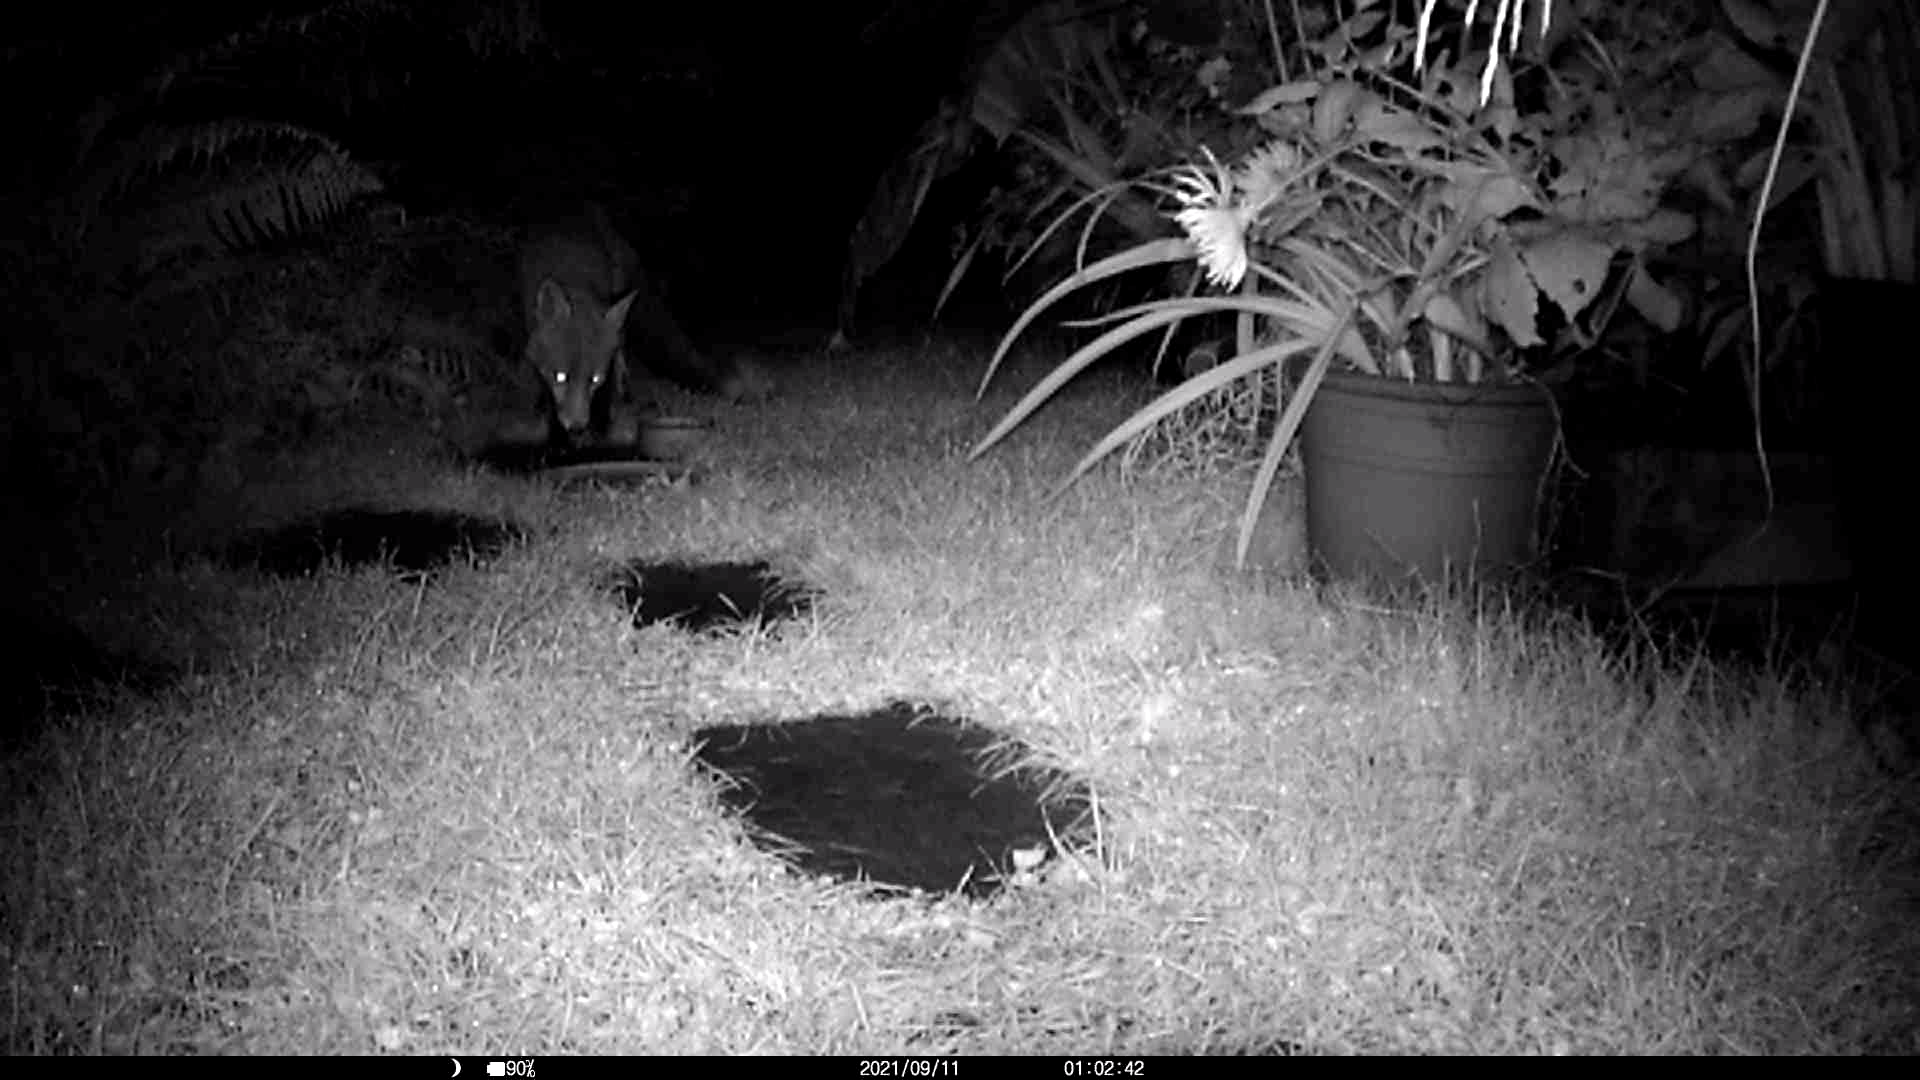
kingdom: Animalia
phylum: Chordata
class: Mammalia
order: Carnivora
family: Canidae
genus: Vulpes
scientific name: Vulpes vulpes
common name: Red fox
